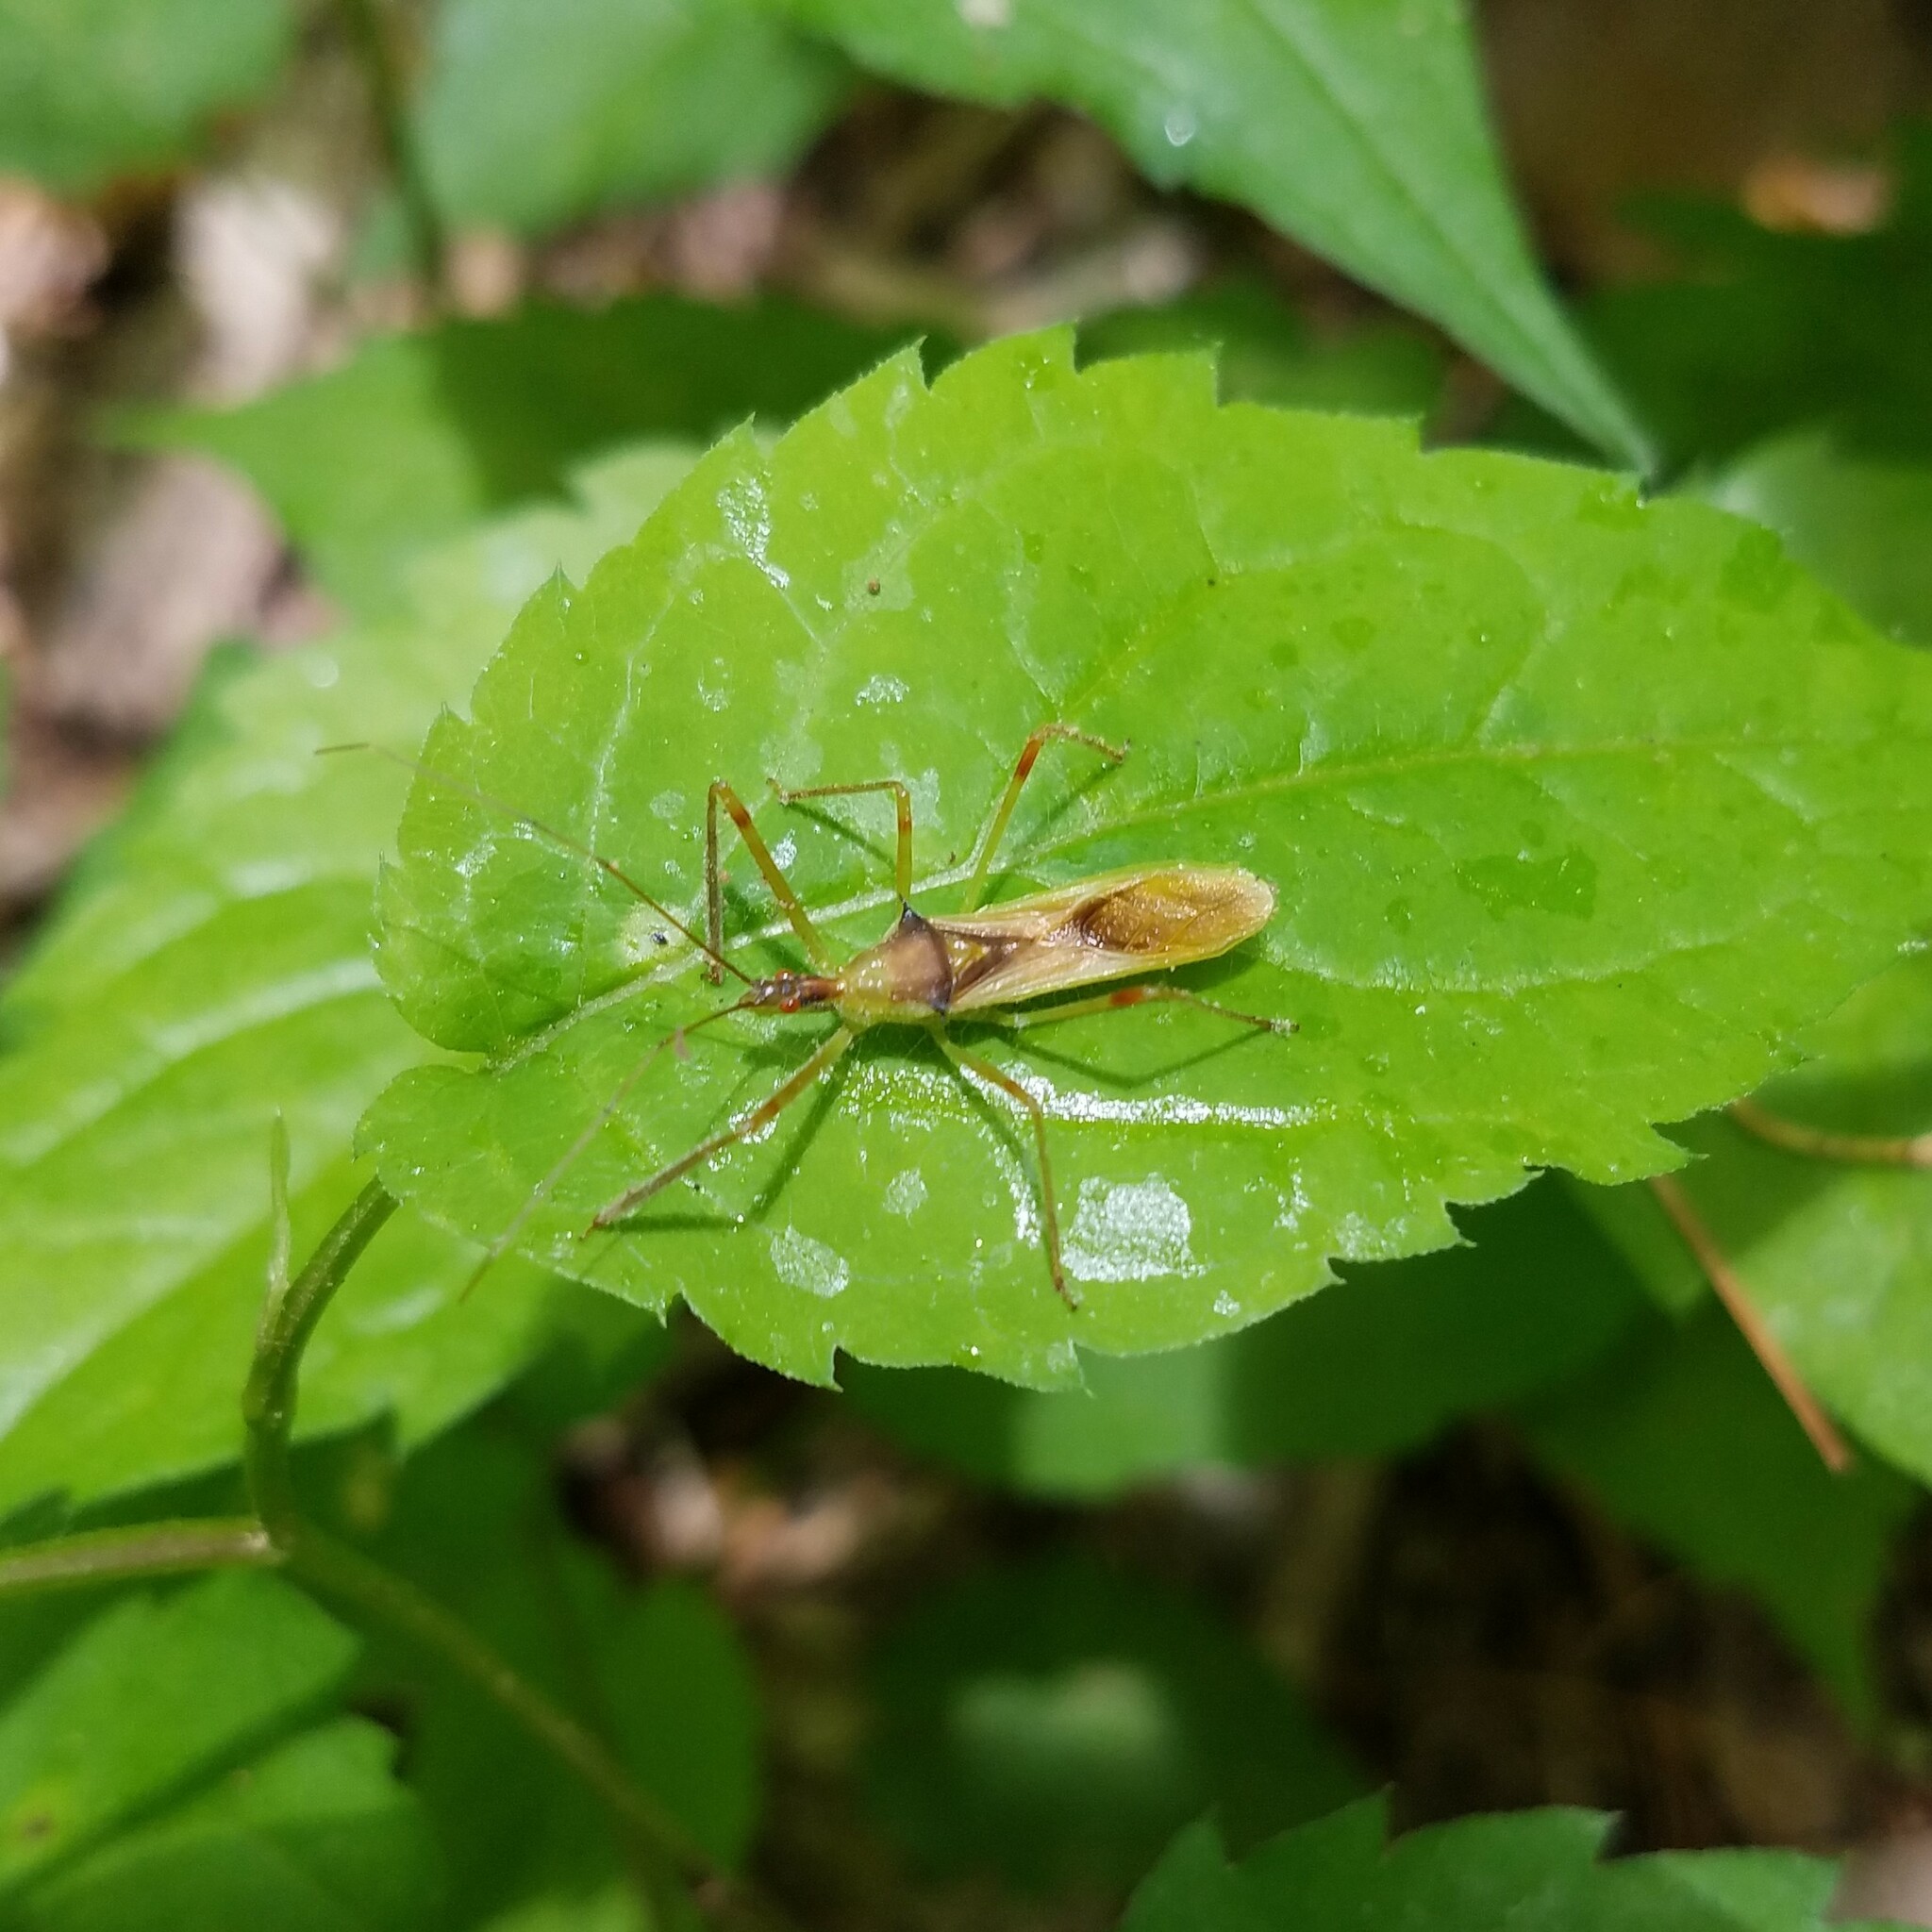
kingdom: Animalia
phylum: Arthropoda
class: Insecta
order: Hemiptera
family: Reduviidae
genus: Zelus
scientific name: Zelus luridus
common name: Pale green assassin bug
